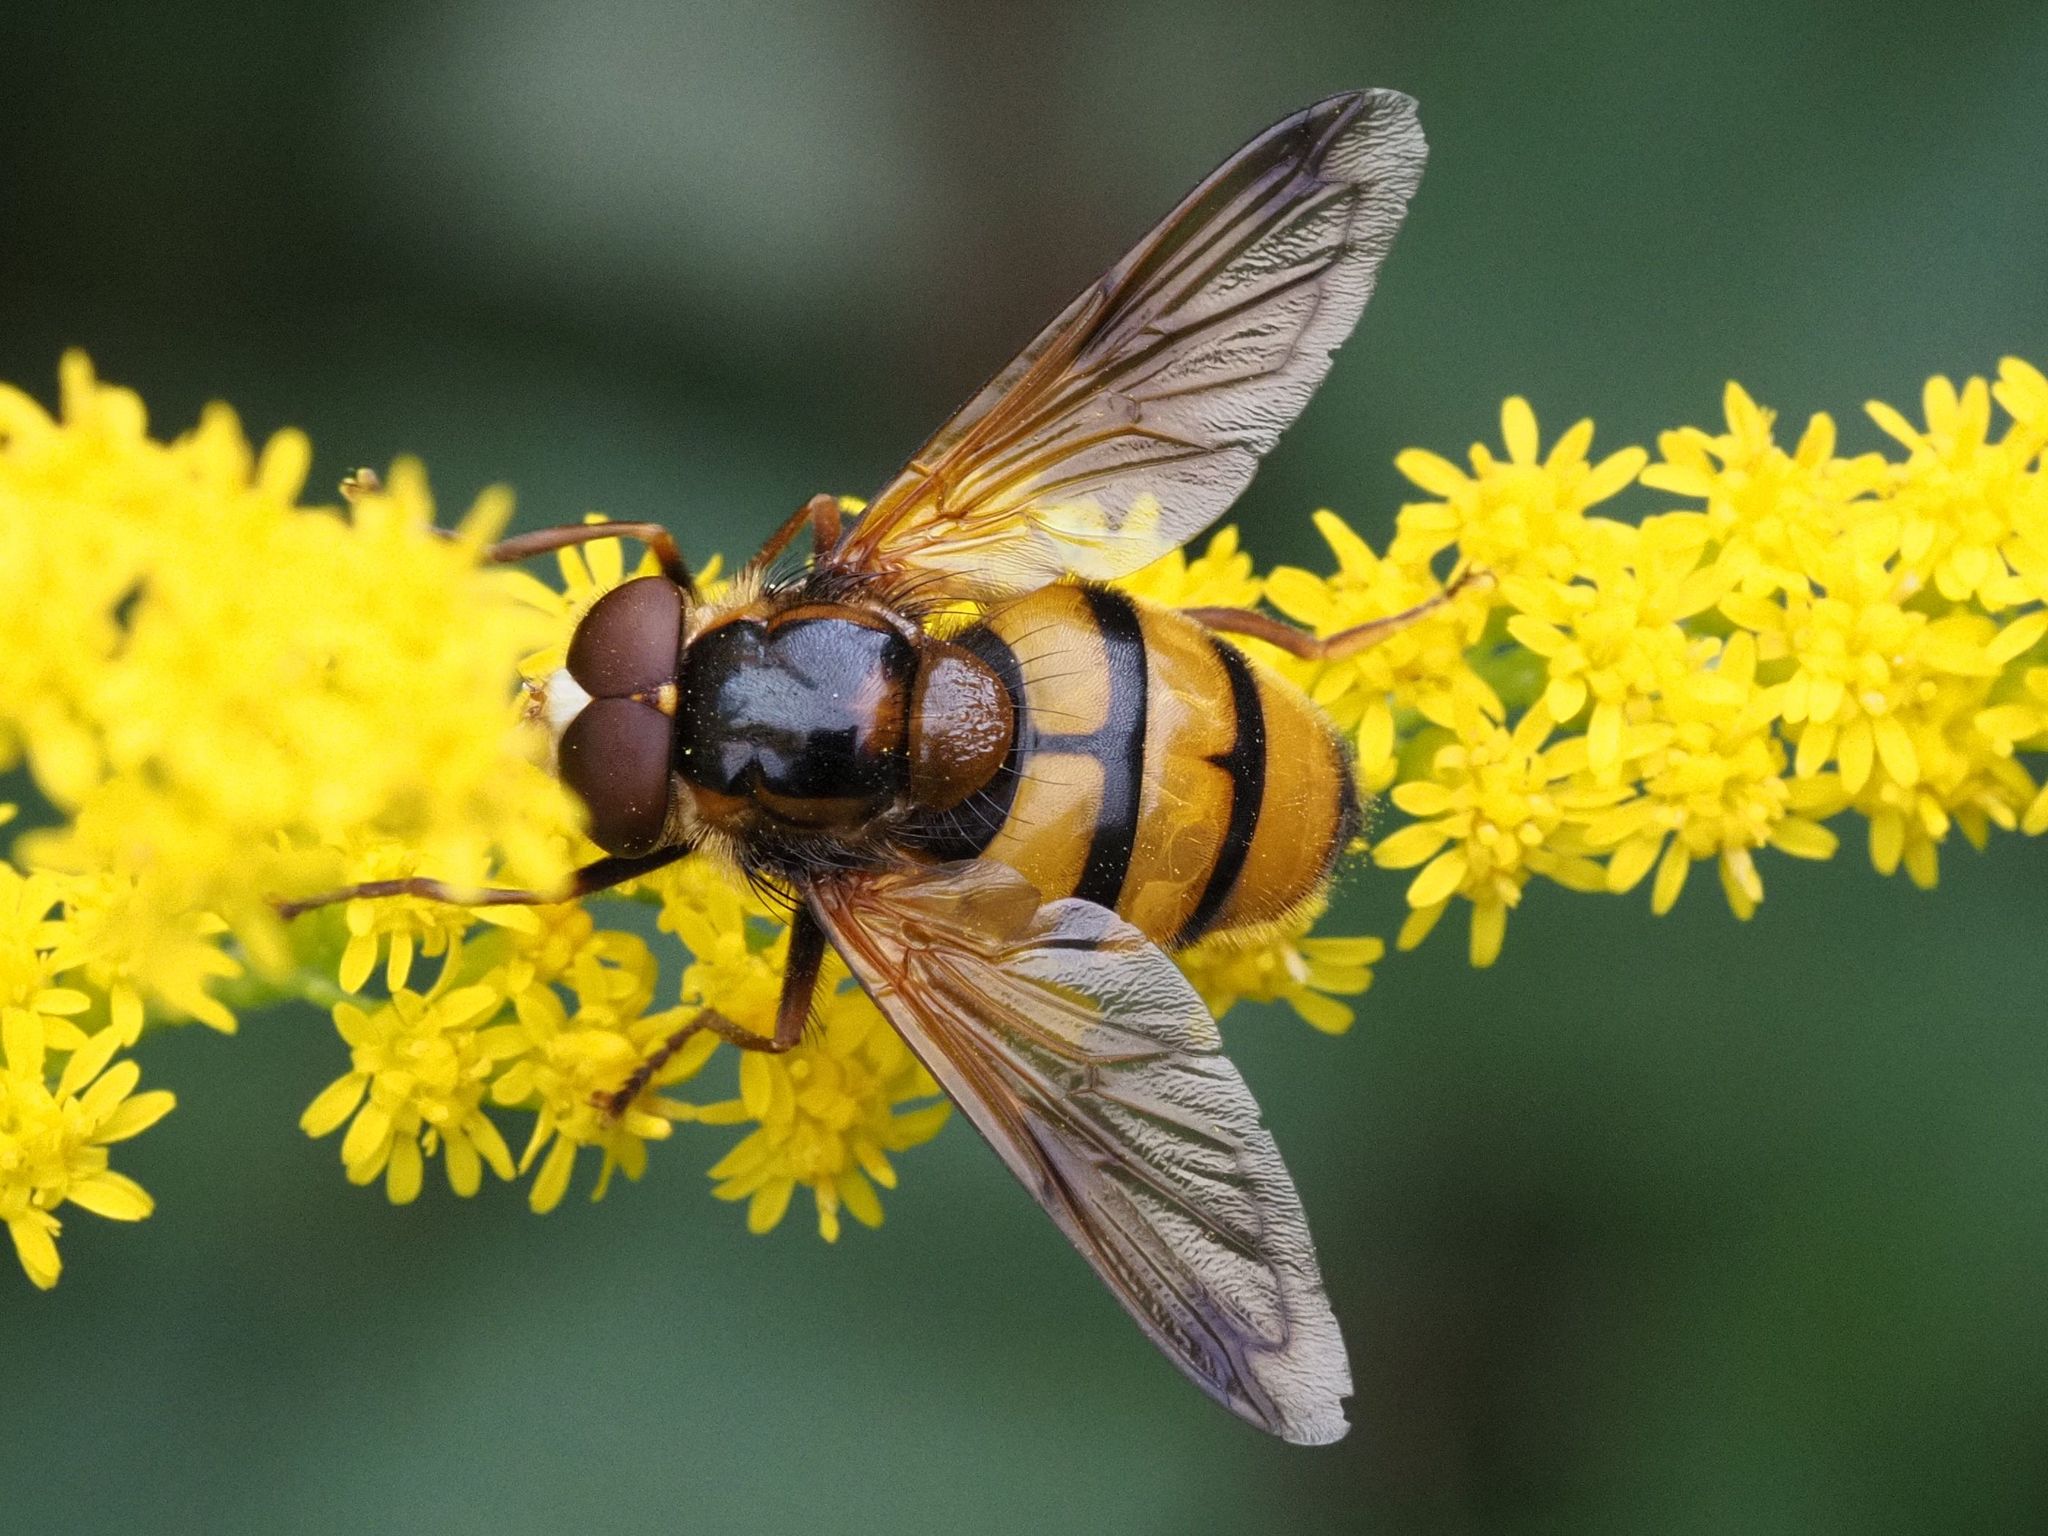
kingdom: Animalia
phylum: Arthropoda
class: Insecta
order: Diptera
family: Syrphidae
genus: Volucella
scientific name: Volucella inanis
